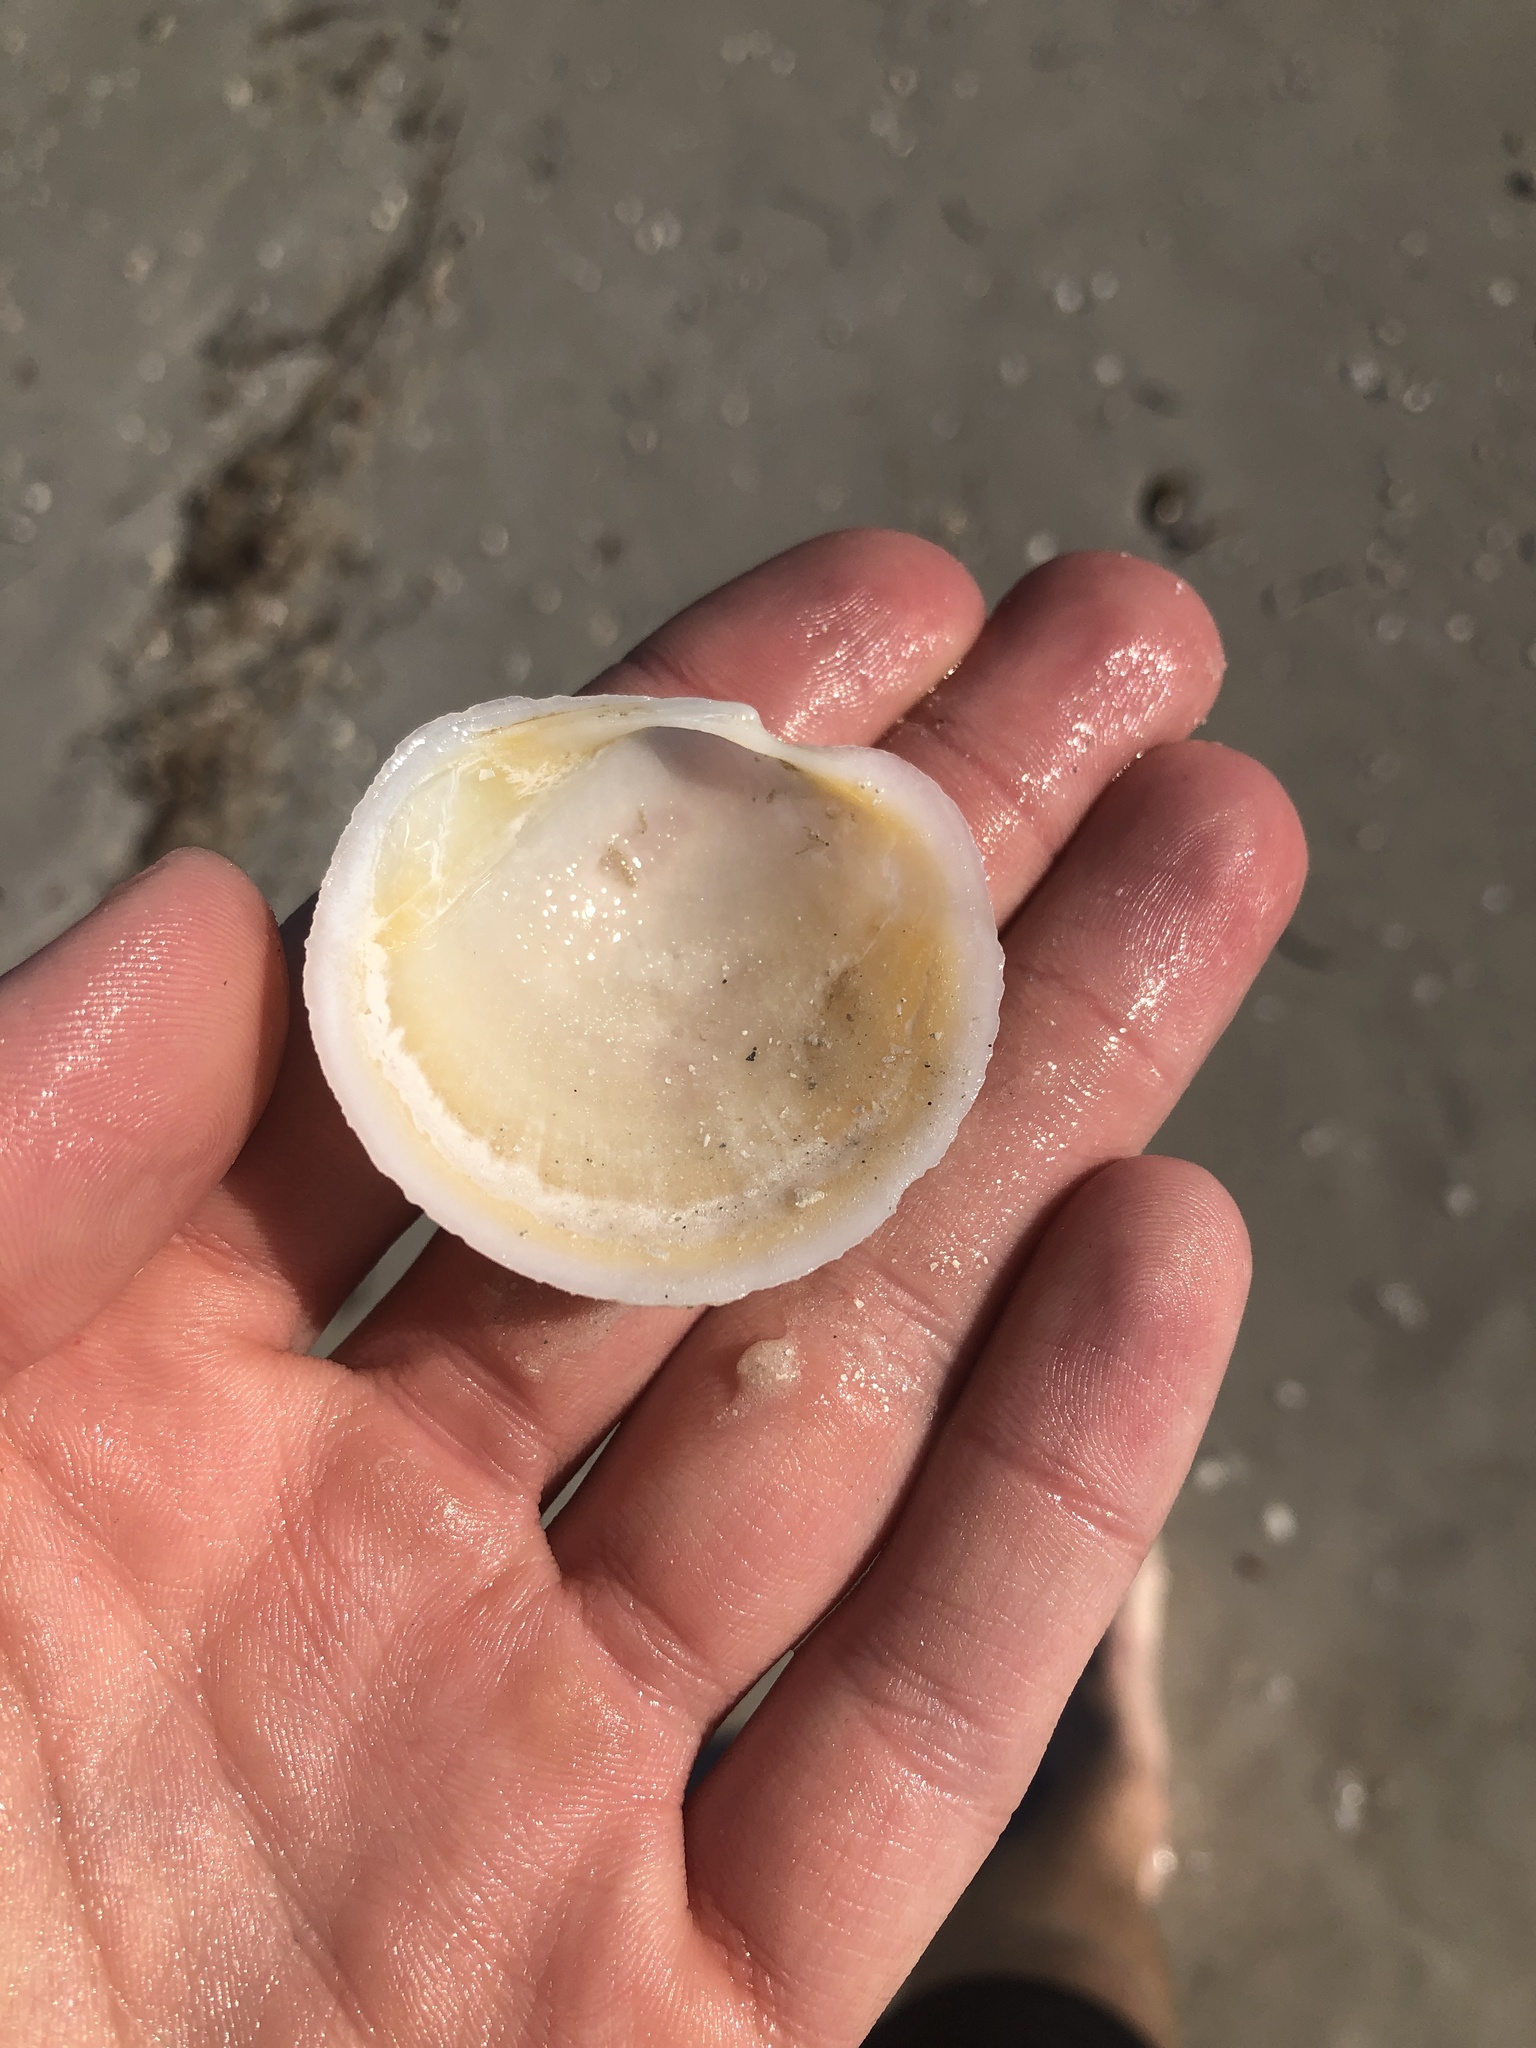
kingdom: Animalia
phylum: Mollusca
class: Bivalvia
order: Lucinida
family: Lucinidae
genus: Anodontia
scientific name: Anodontia alba
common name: Buttercup lucine
